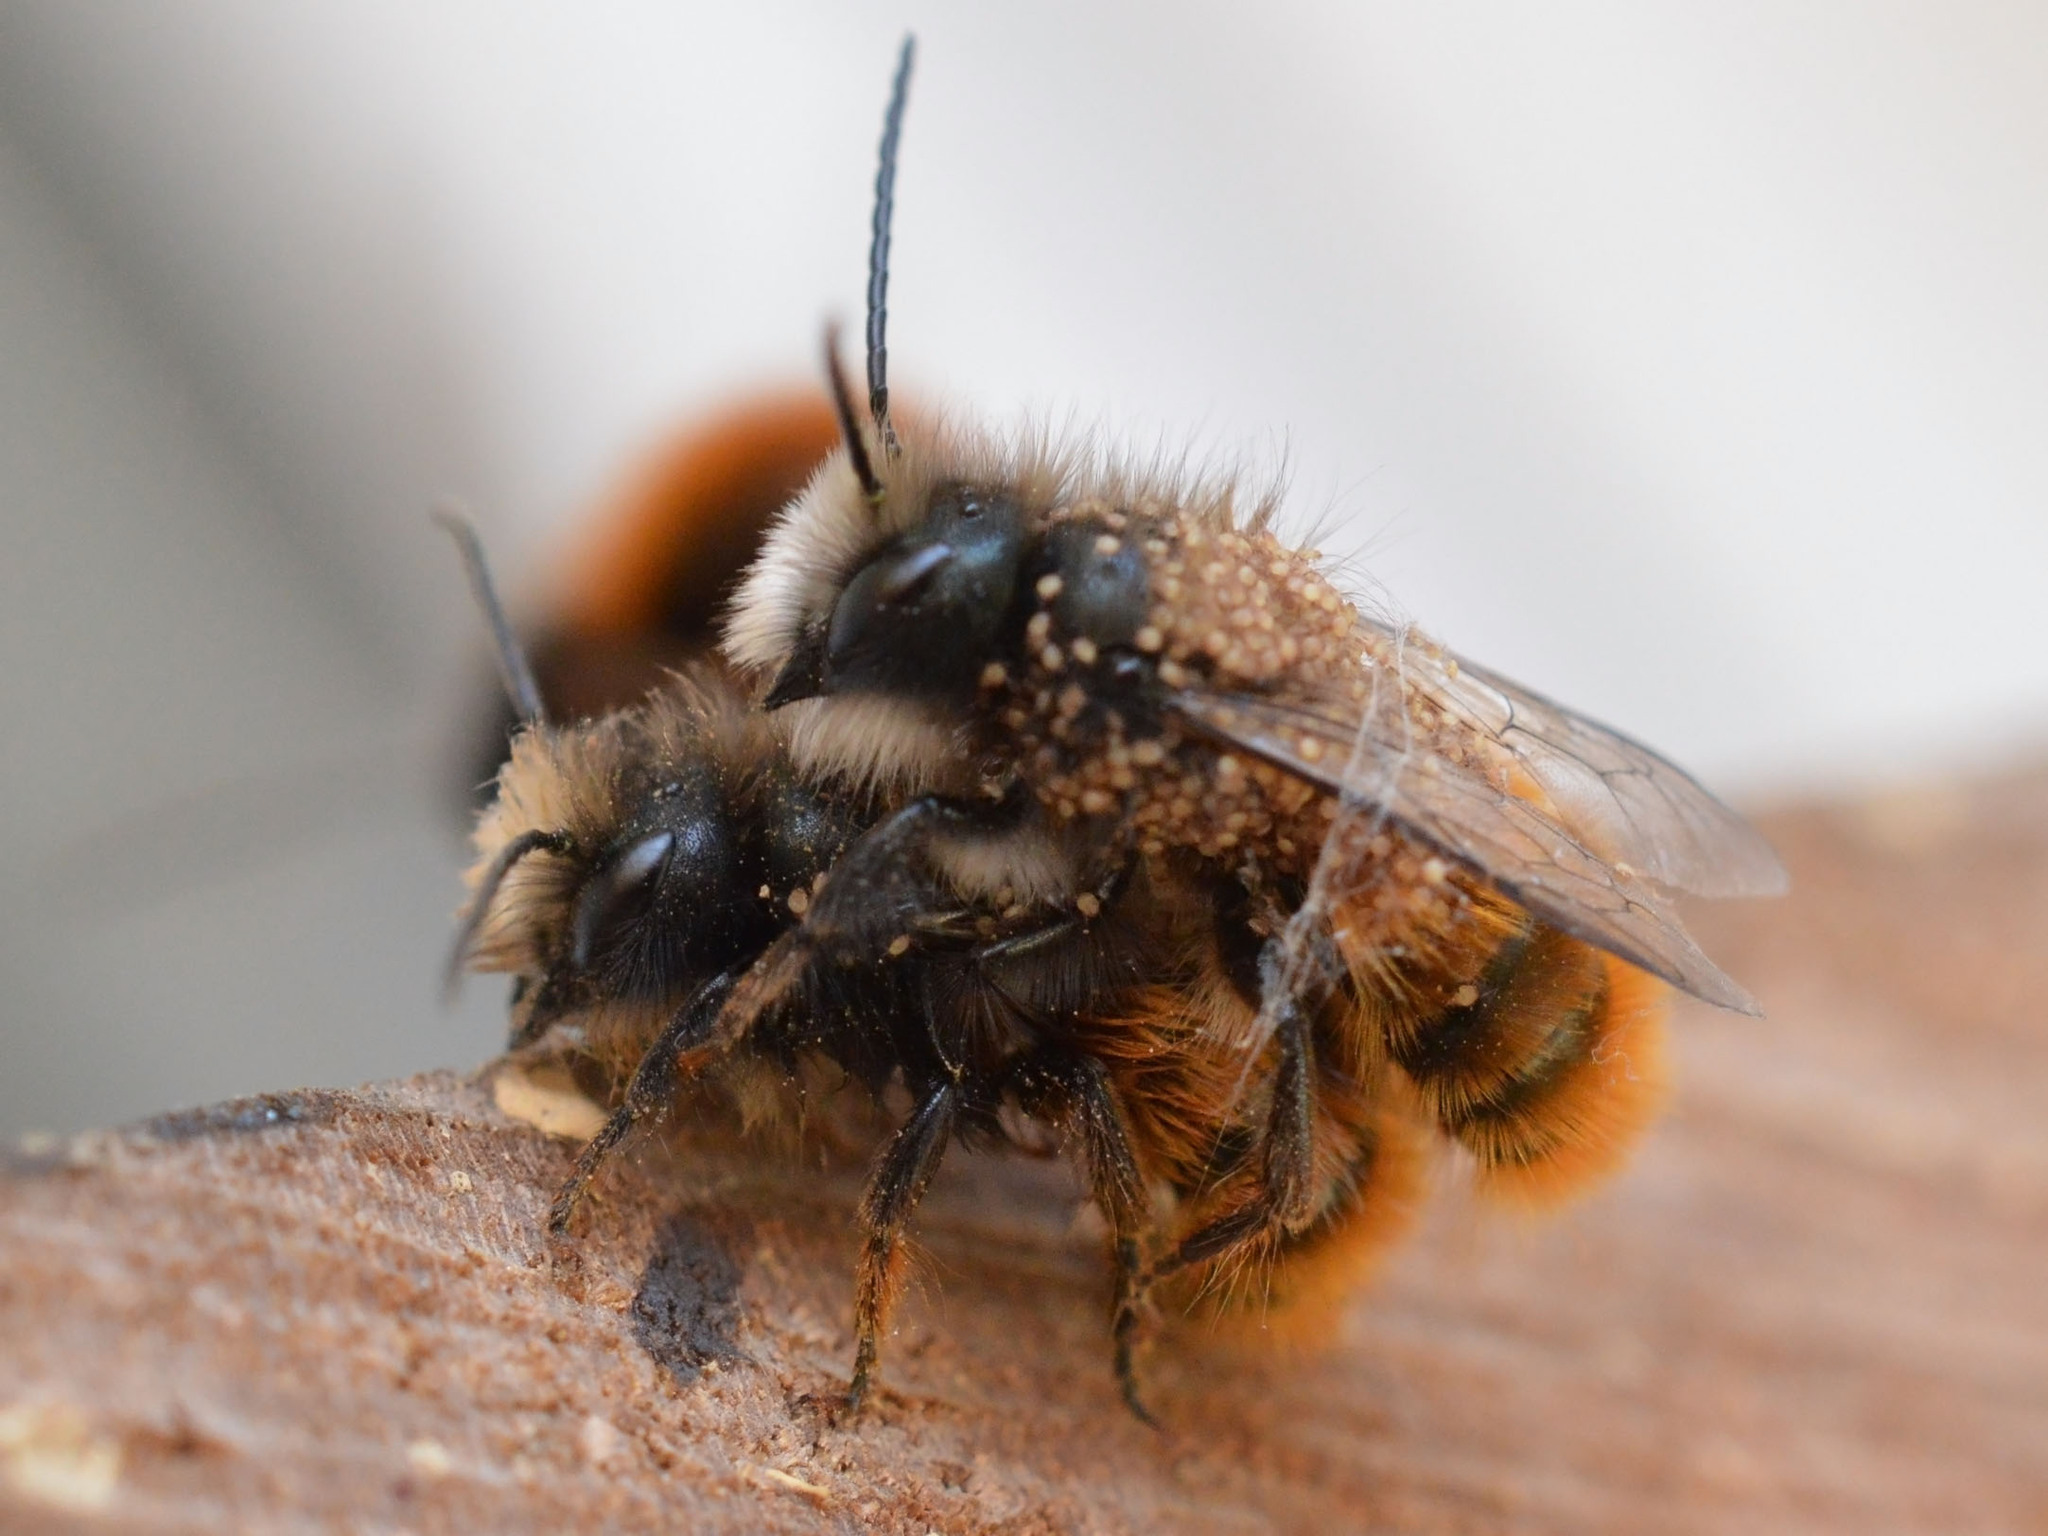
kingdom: Animalia
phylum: Arthropoda
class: Insecta
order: Hymenoptera
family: Megachilidae
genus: Osmia
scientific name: Osmia cornuta
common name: Mason bee
